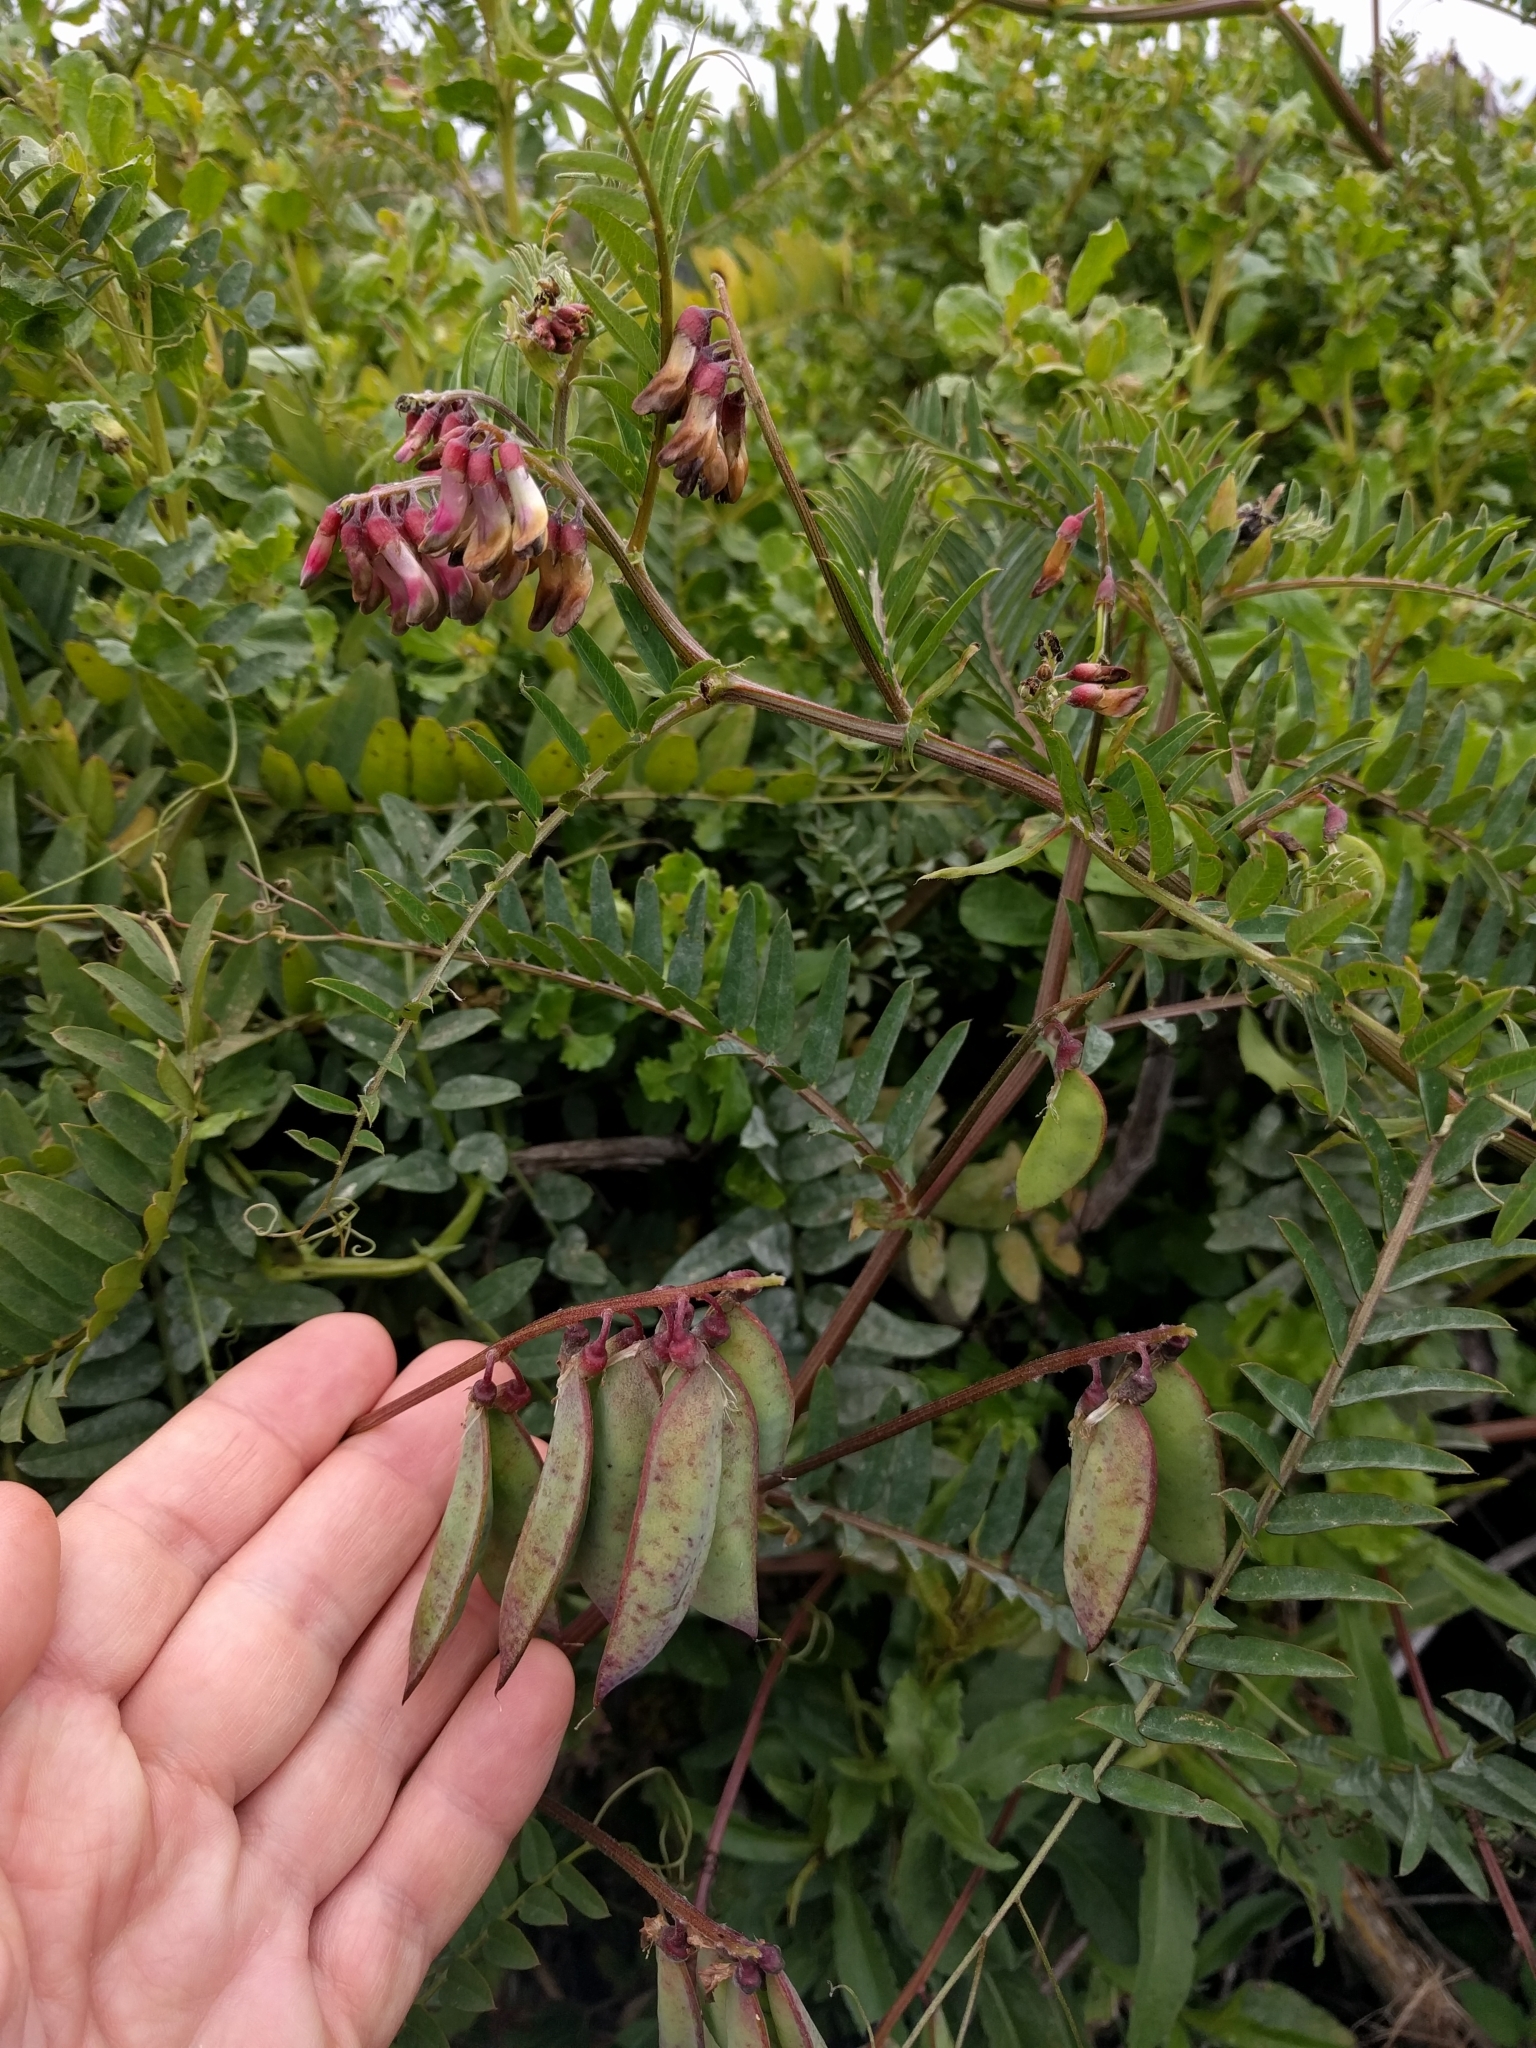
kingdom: Plantae
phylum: Tracheophyta
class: Magnoliopsida
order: Fabales
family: Fabaceae
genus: Vicia
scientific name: Vicia
